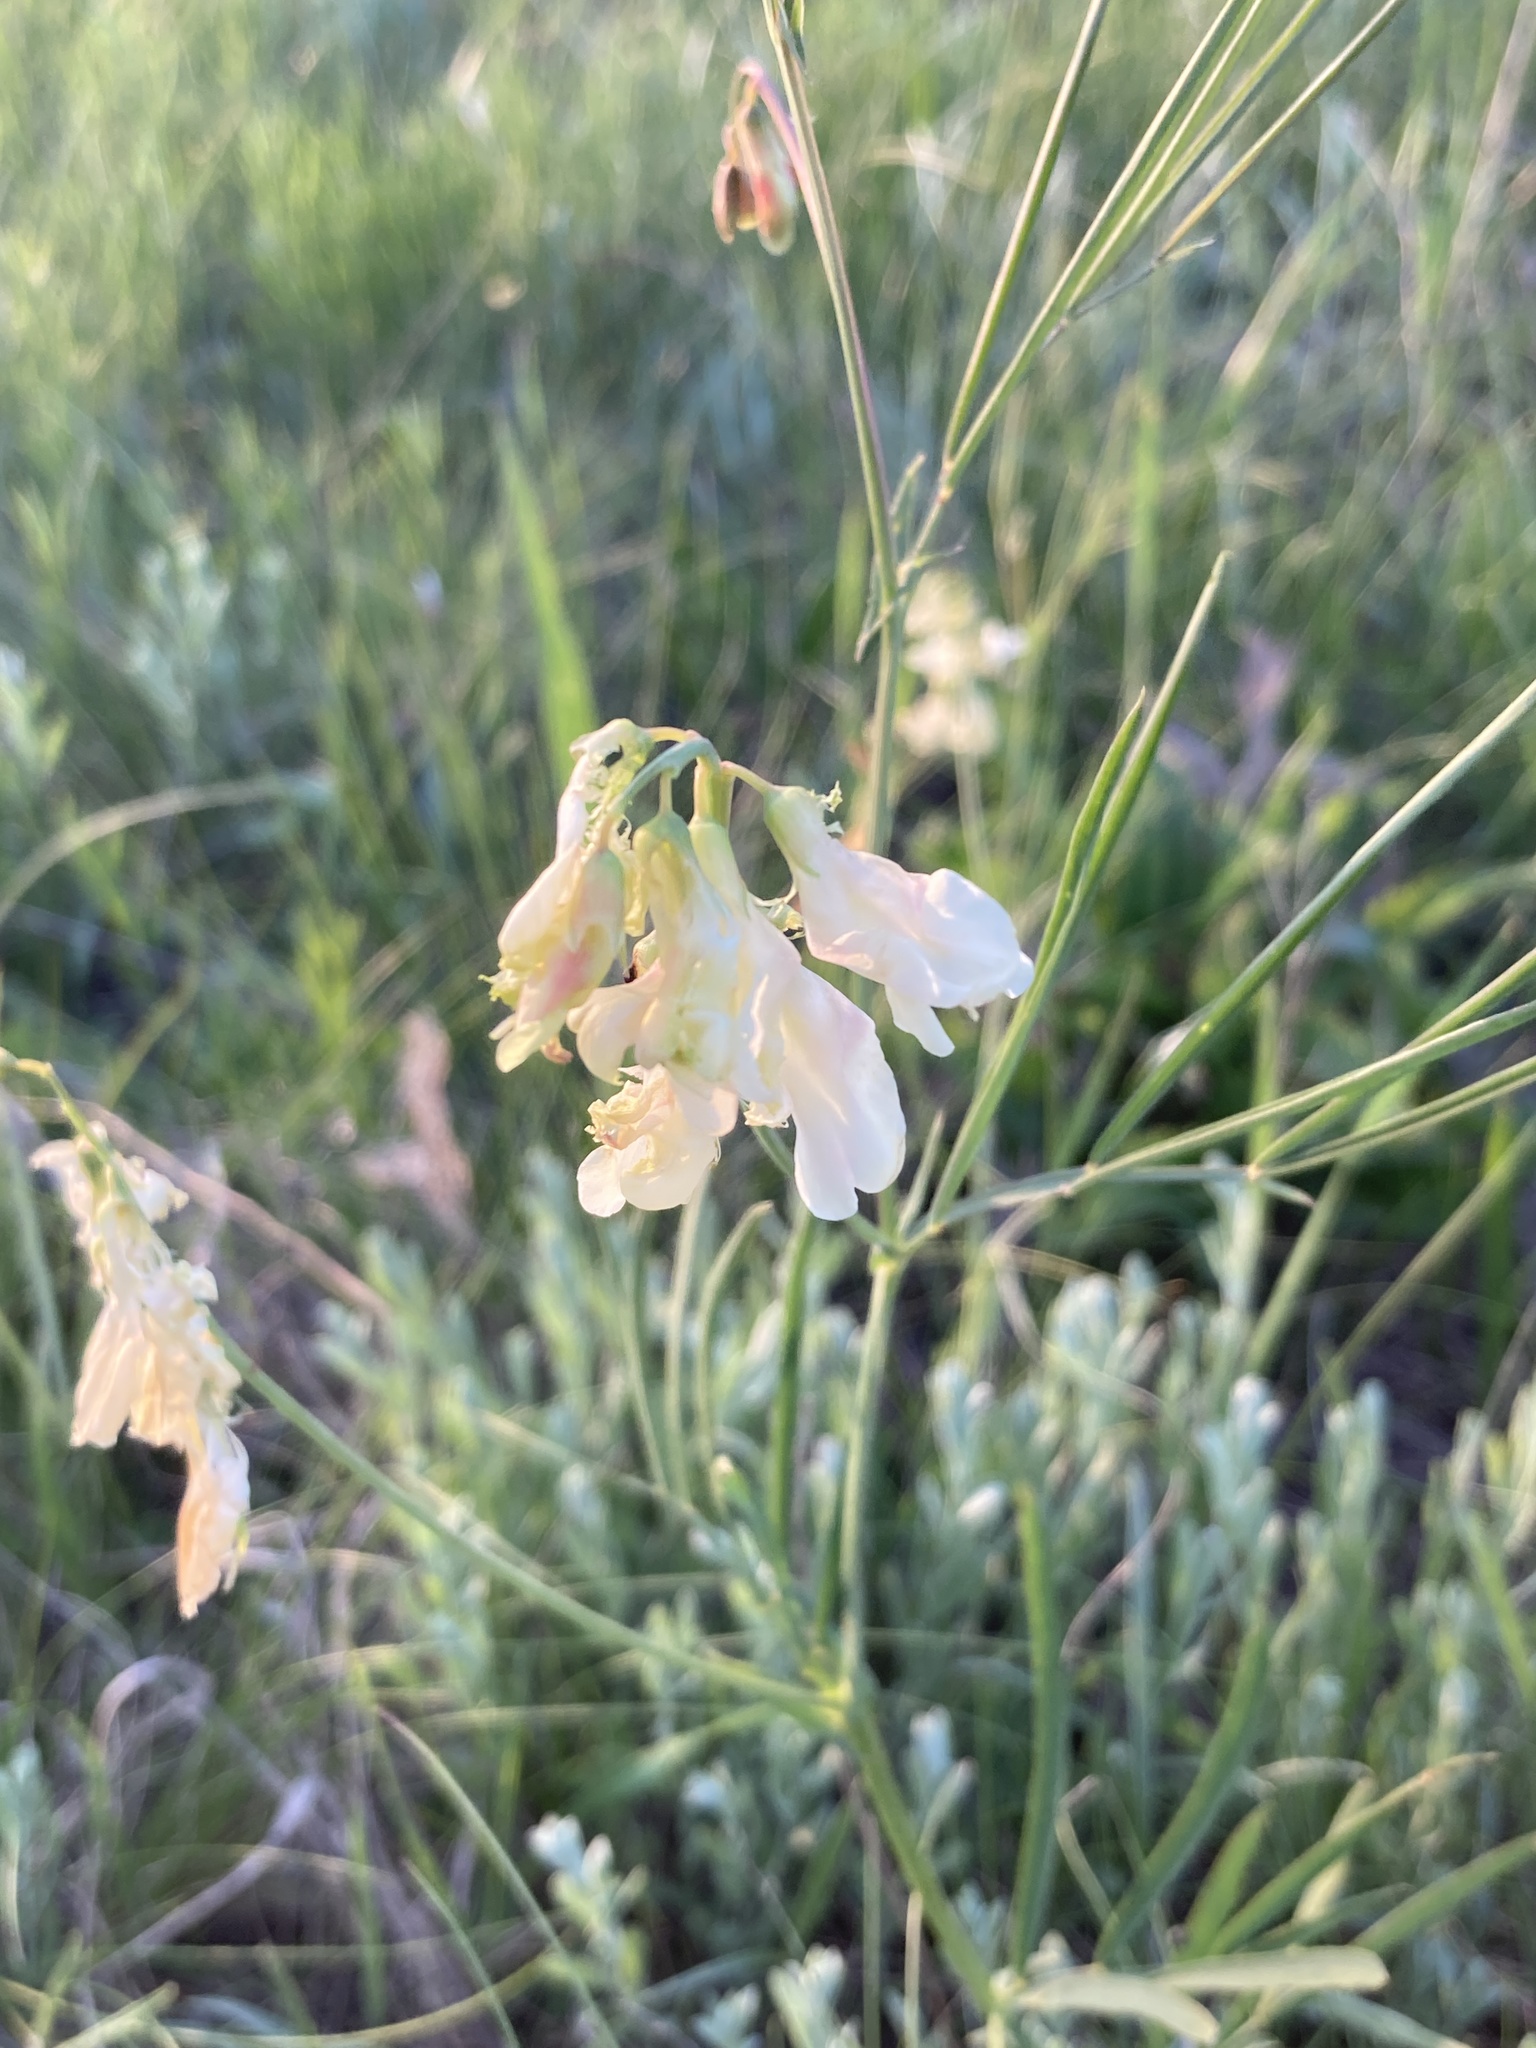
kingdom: Plantae
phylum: Tracheophyta
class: Magnoliopsida
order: Fabales
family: Fabaceae
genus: Lathyrus
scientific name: Lathyrus pannonicus
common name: Pea
